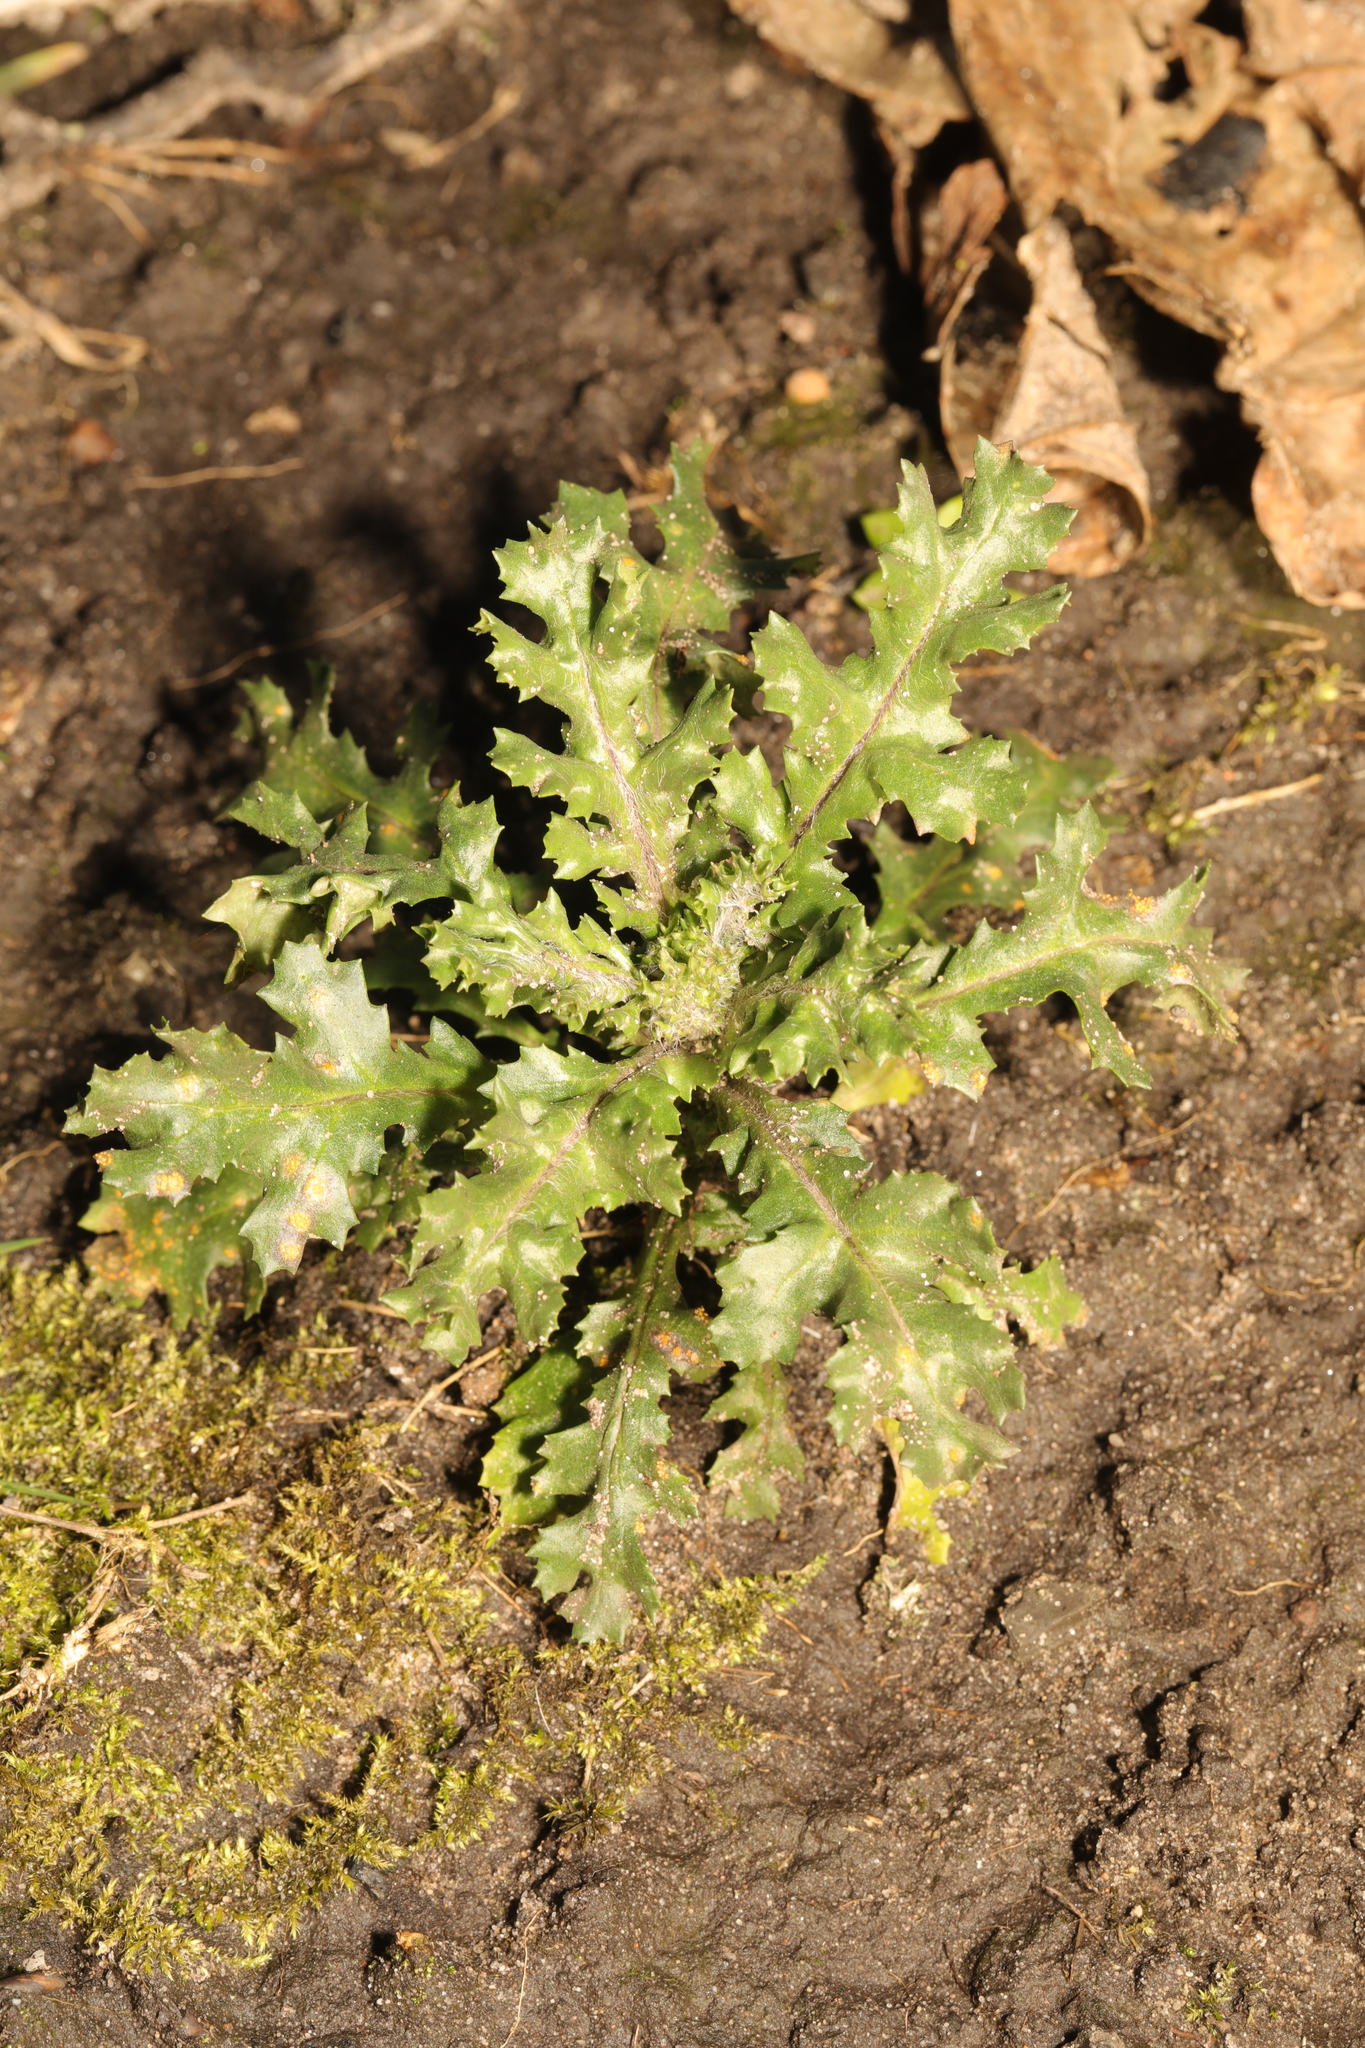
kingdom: Plantae
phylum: Tracheophyta
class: Magnoliopsida
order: Asterales
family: Asteraceae
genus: Senecio
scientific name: Senecio vulgaris
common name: Old-man-in-the-spring
